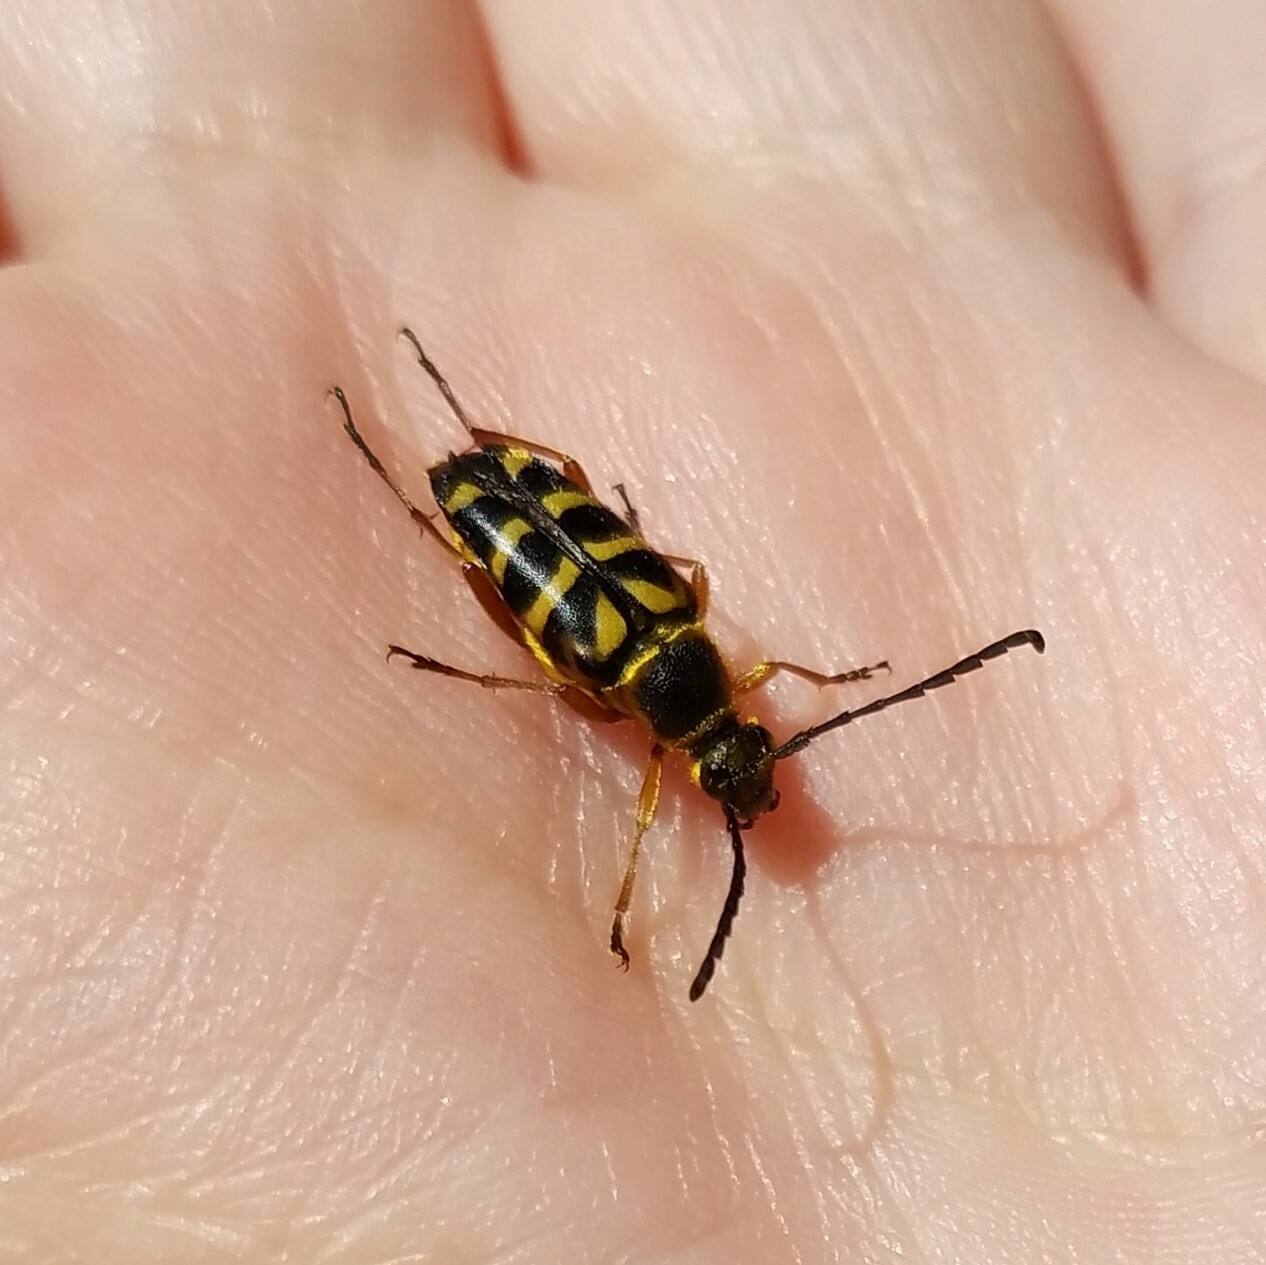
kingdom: Animalia
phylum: Arthropoda
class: Insecta
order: Coleoptera
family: Cerambycidae
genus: Typocerus
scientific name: Typocerus zebra
